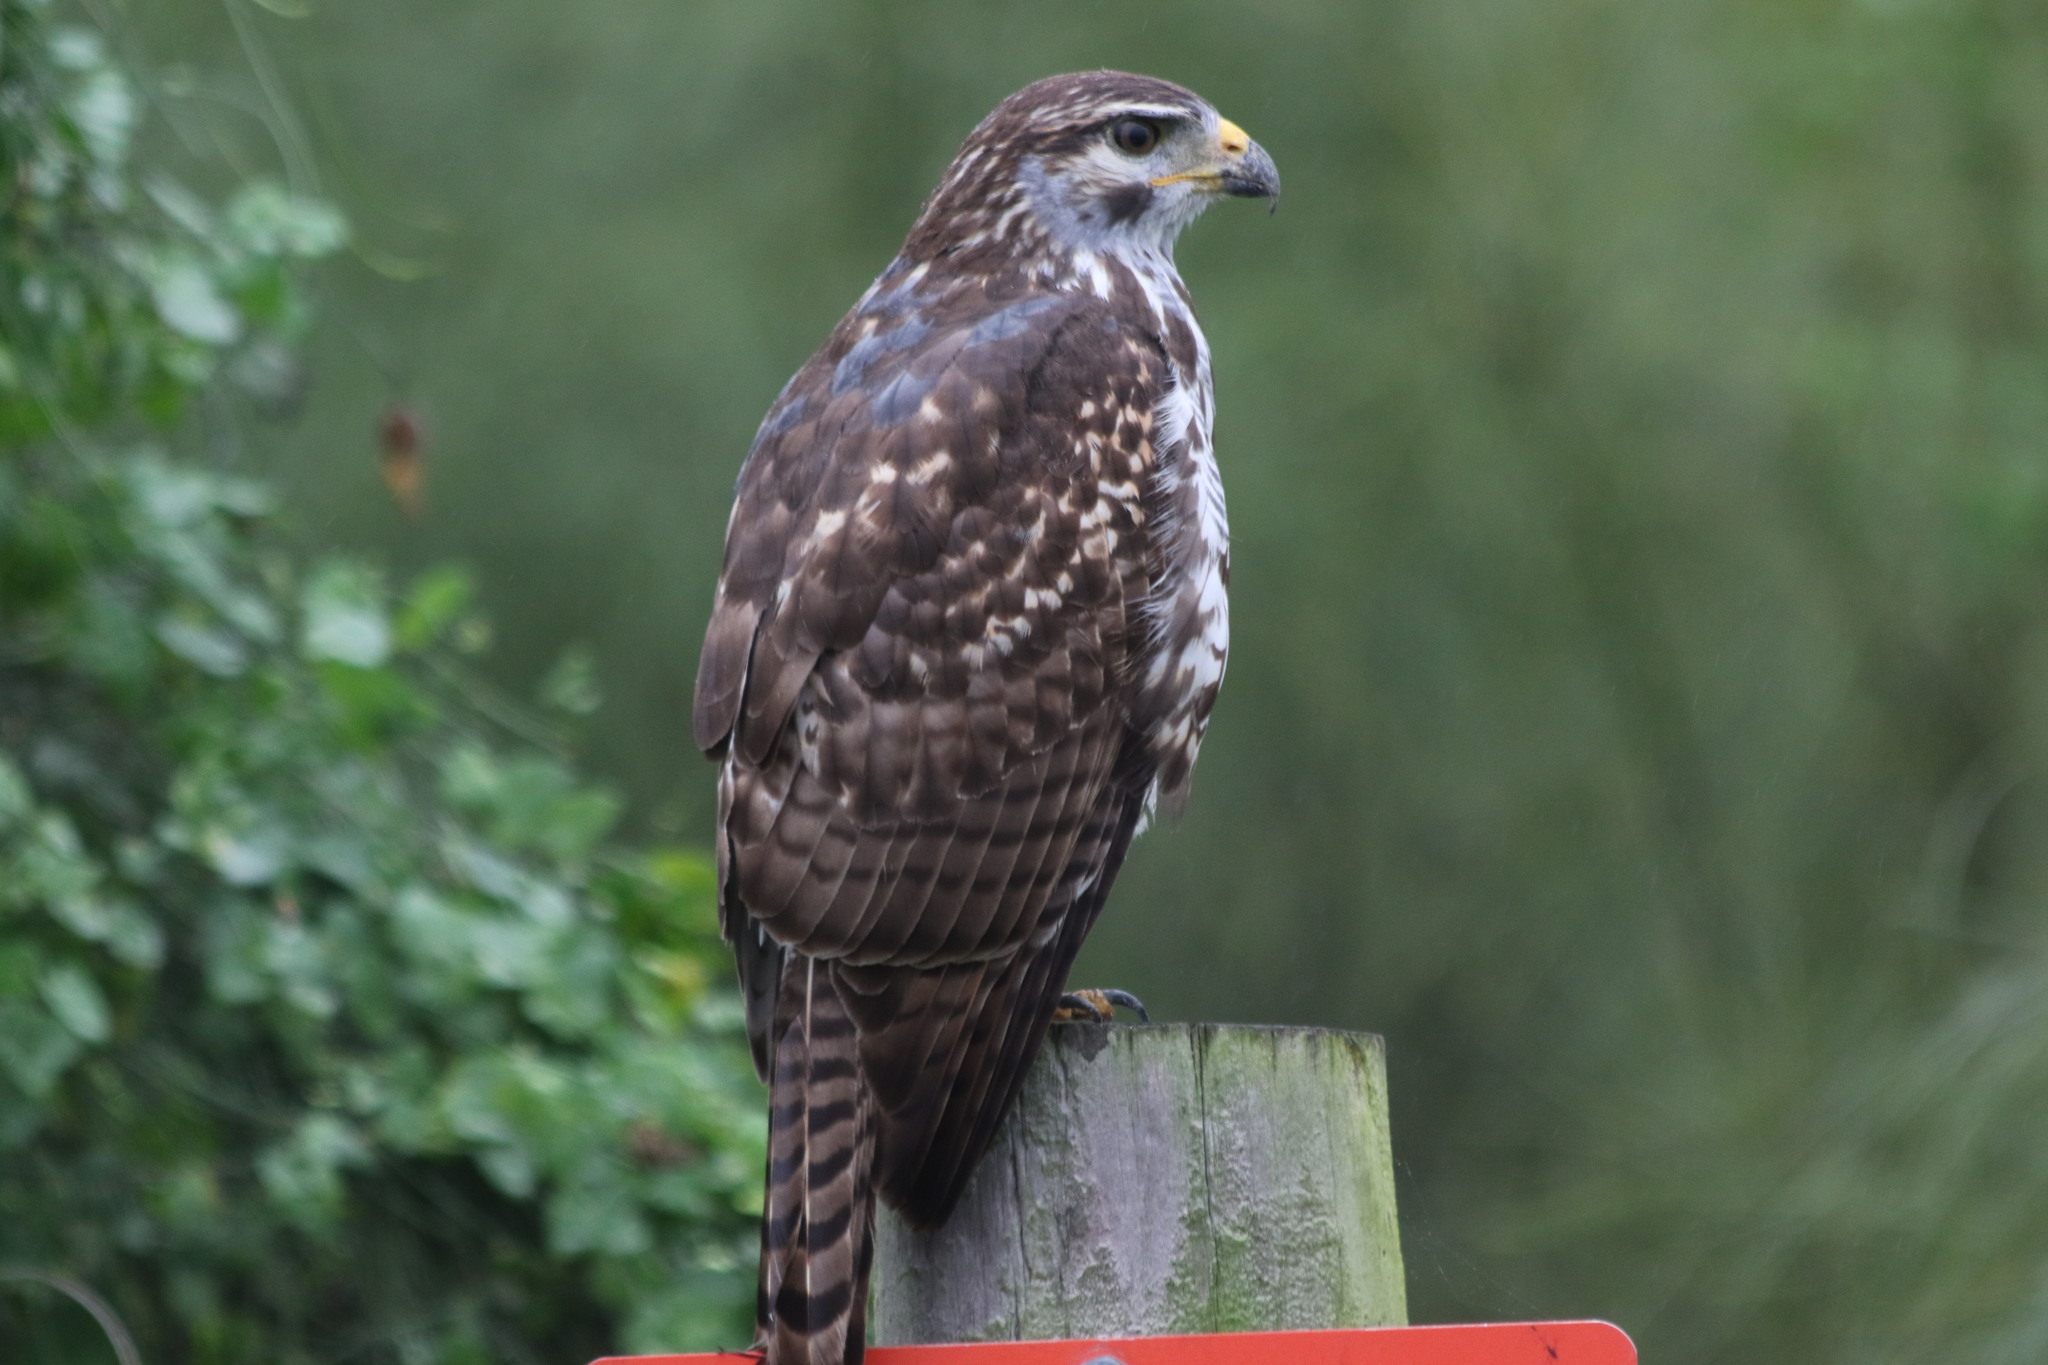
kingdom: Animalia
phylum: Chordata
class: Aves
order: Accipitriformes
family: Accipitridae
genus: Buteo
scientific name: Buteo nitidus
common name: Grey-lined hawk
